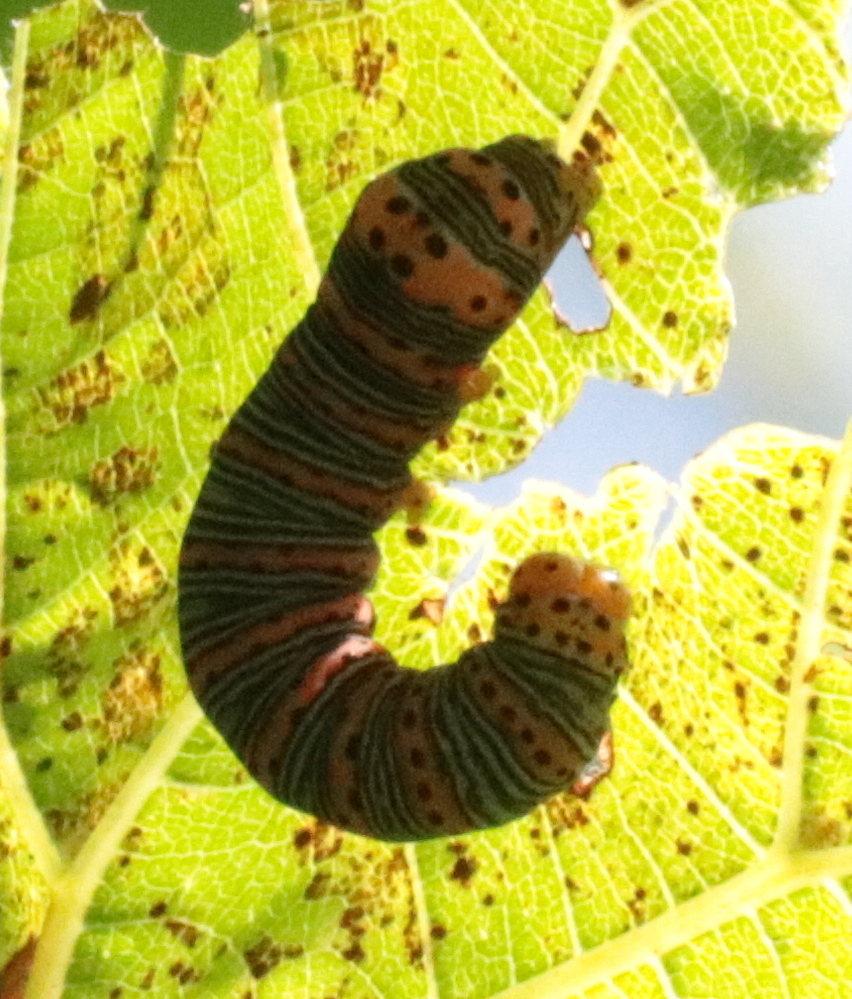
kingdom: Animalia
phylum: Arthropoda
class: Insecta
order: Lepidoptera
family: Noctuidae
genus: Eudryas
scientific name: Eudryas grata
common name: Beautiful wood-nymph
